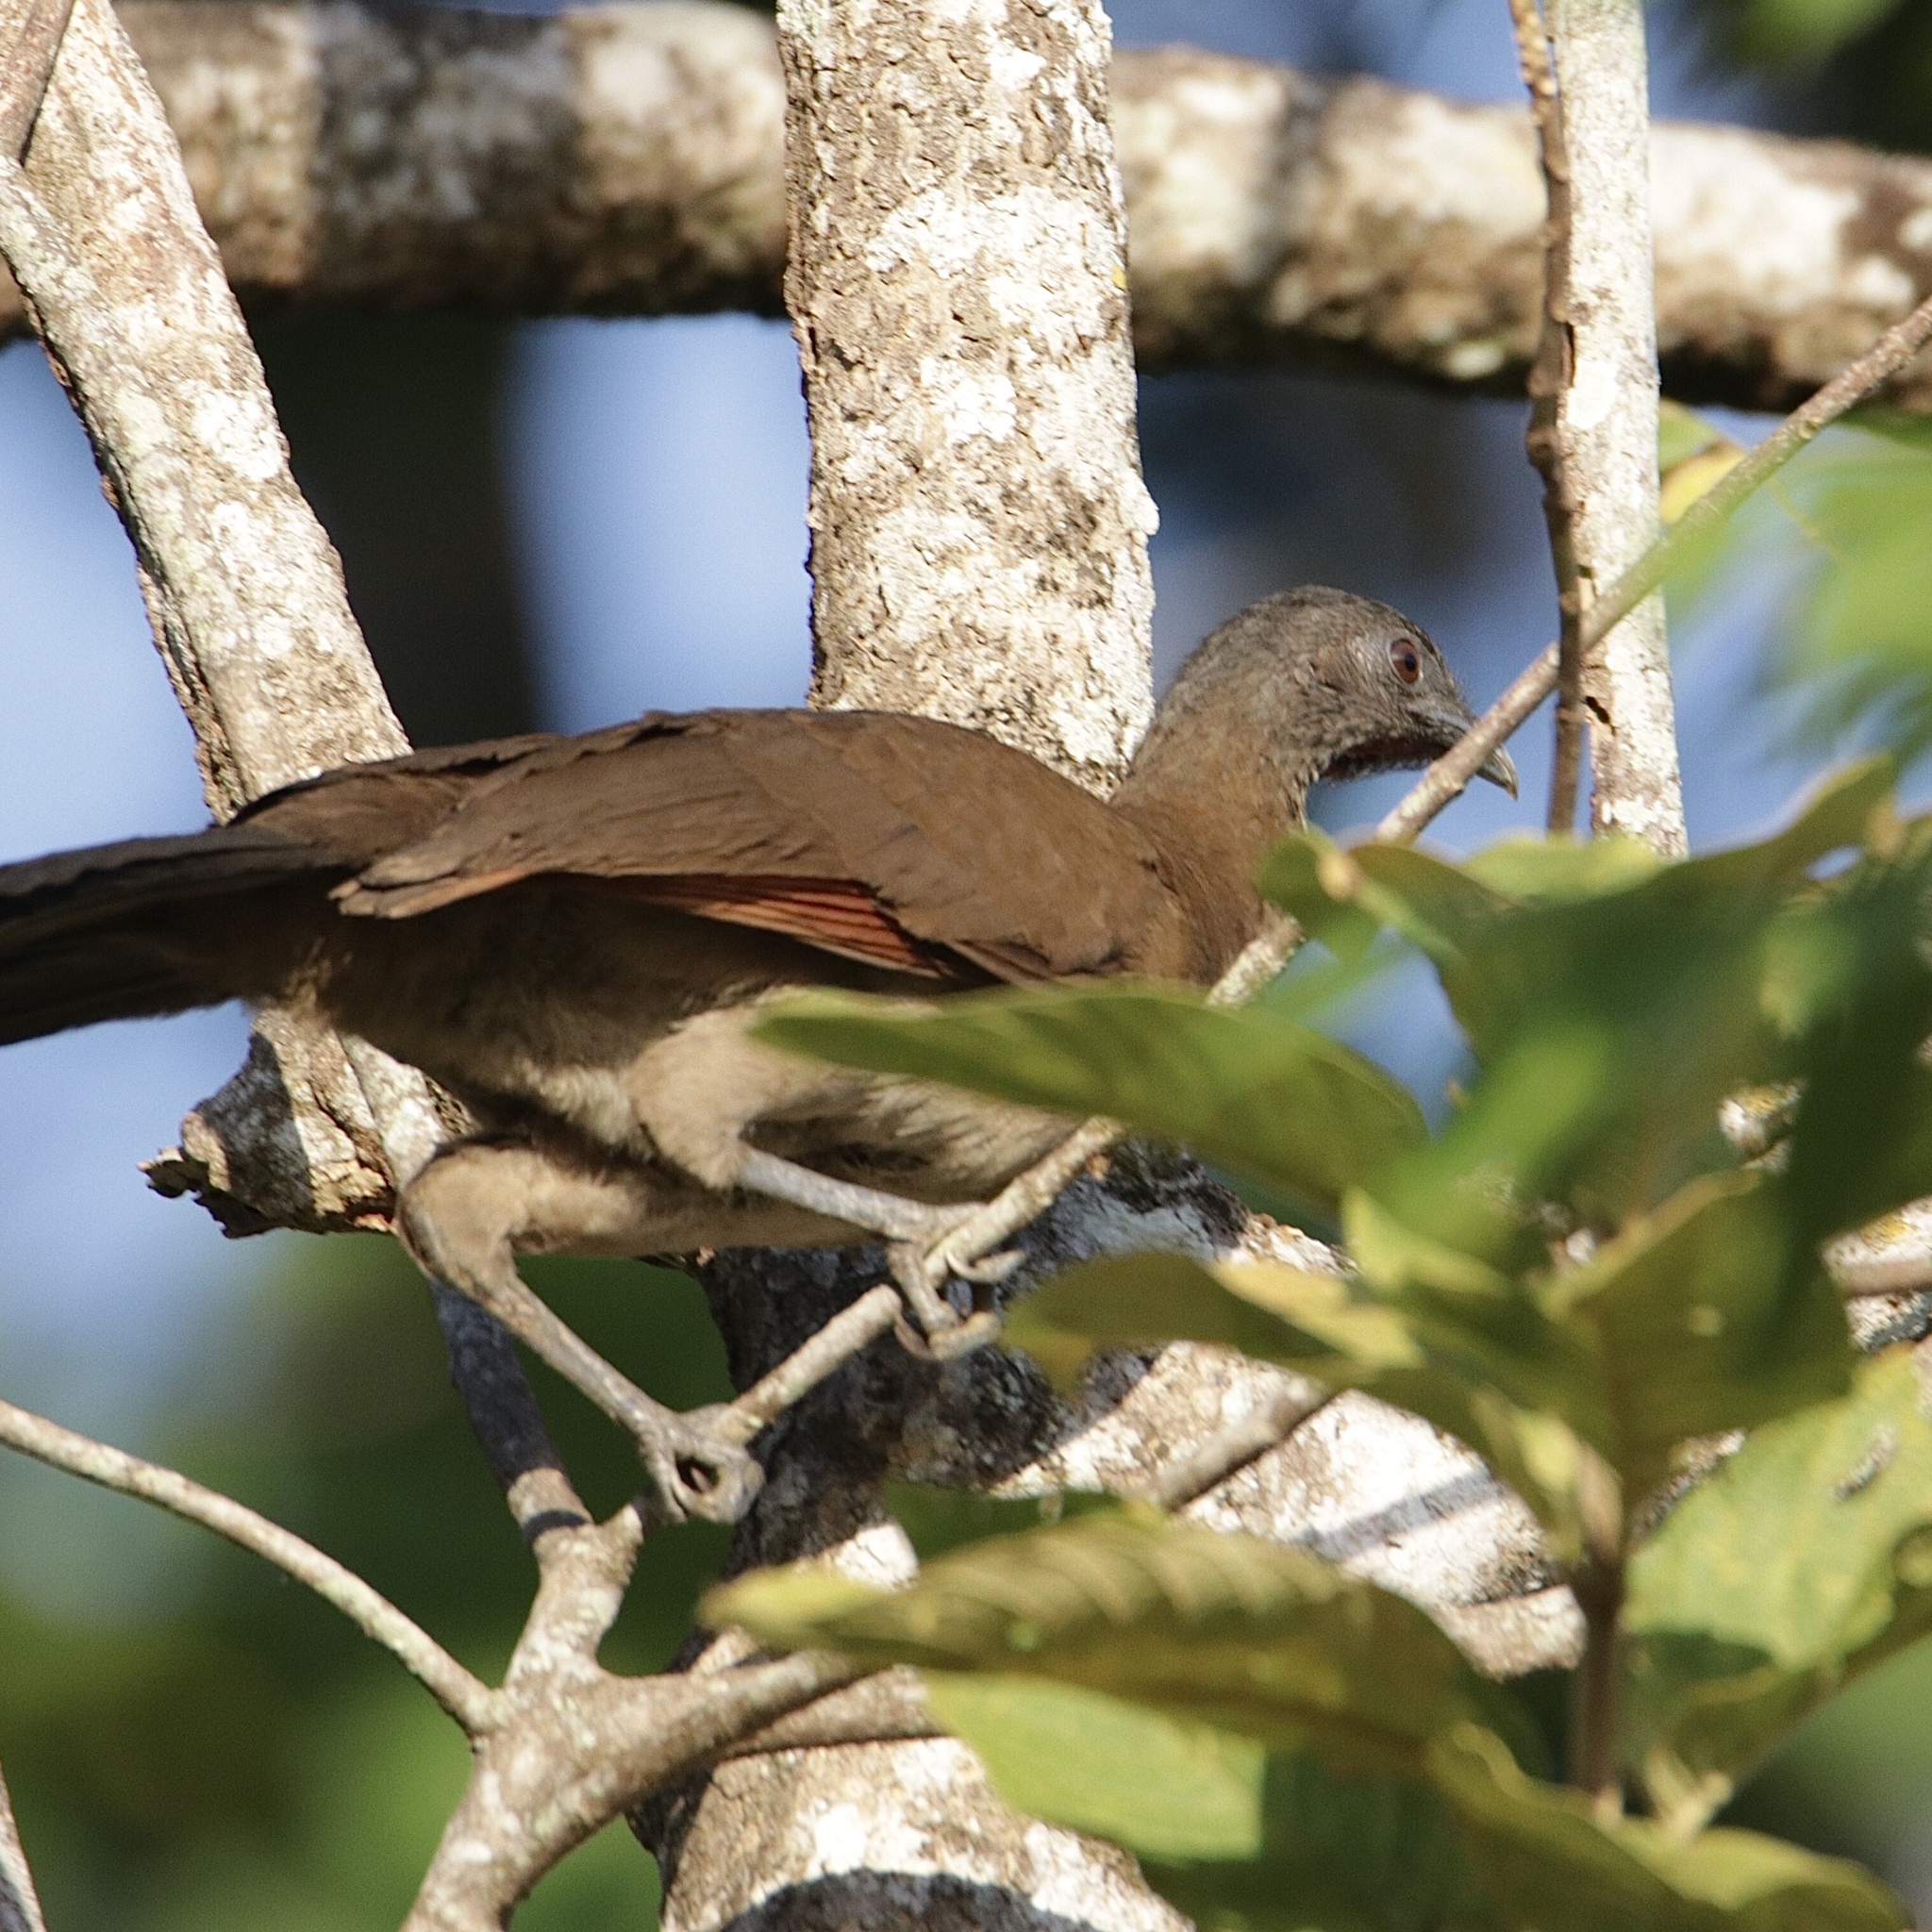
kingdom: Animalia
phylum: Chordata
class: Aves
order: Galliformes
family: Cracidae
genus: Ortalis
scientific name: Ortalis cinereiceps
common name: Grey-headed chachalaca
